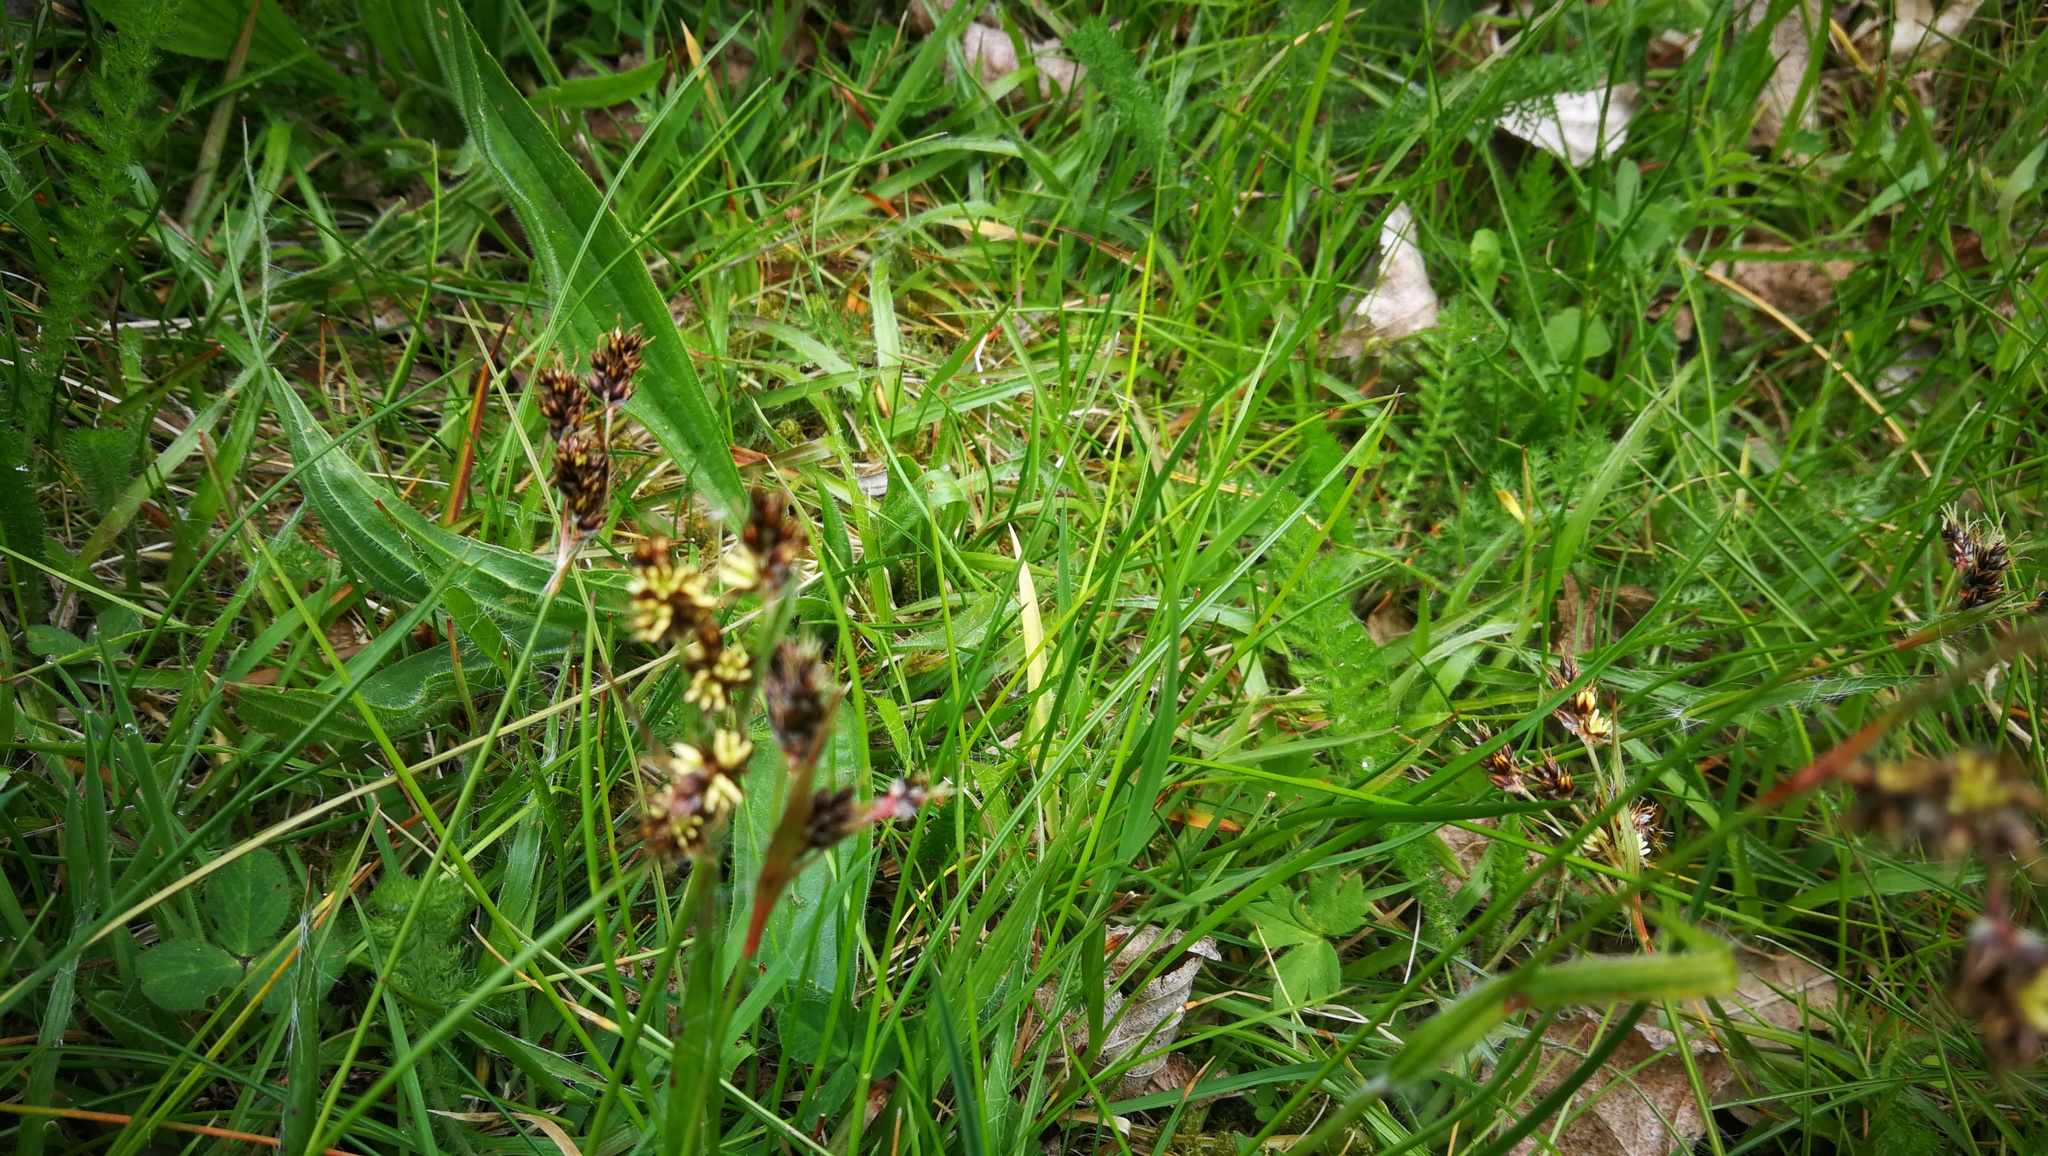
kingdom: Plantae
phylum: Tracheophyta
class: Liliopsida
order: Poales
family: Juncaceae
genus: Luzula
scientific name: Luzula campestris
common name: Field wood-rush
